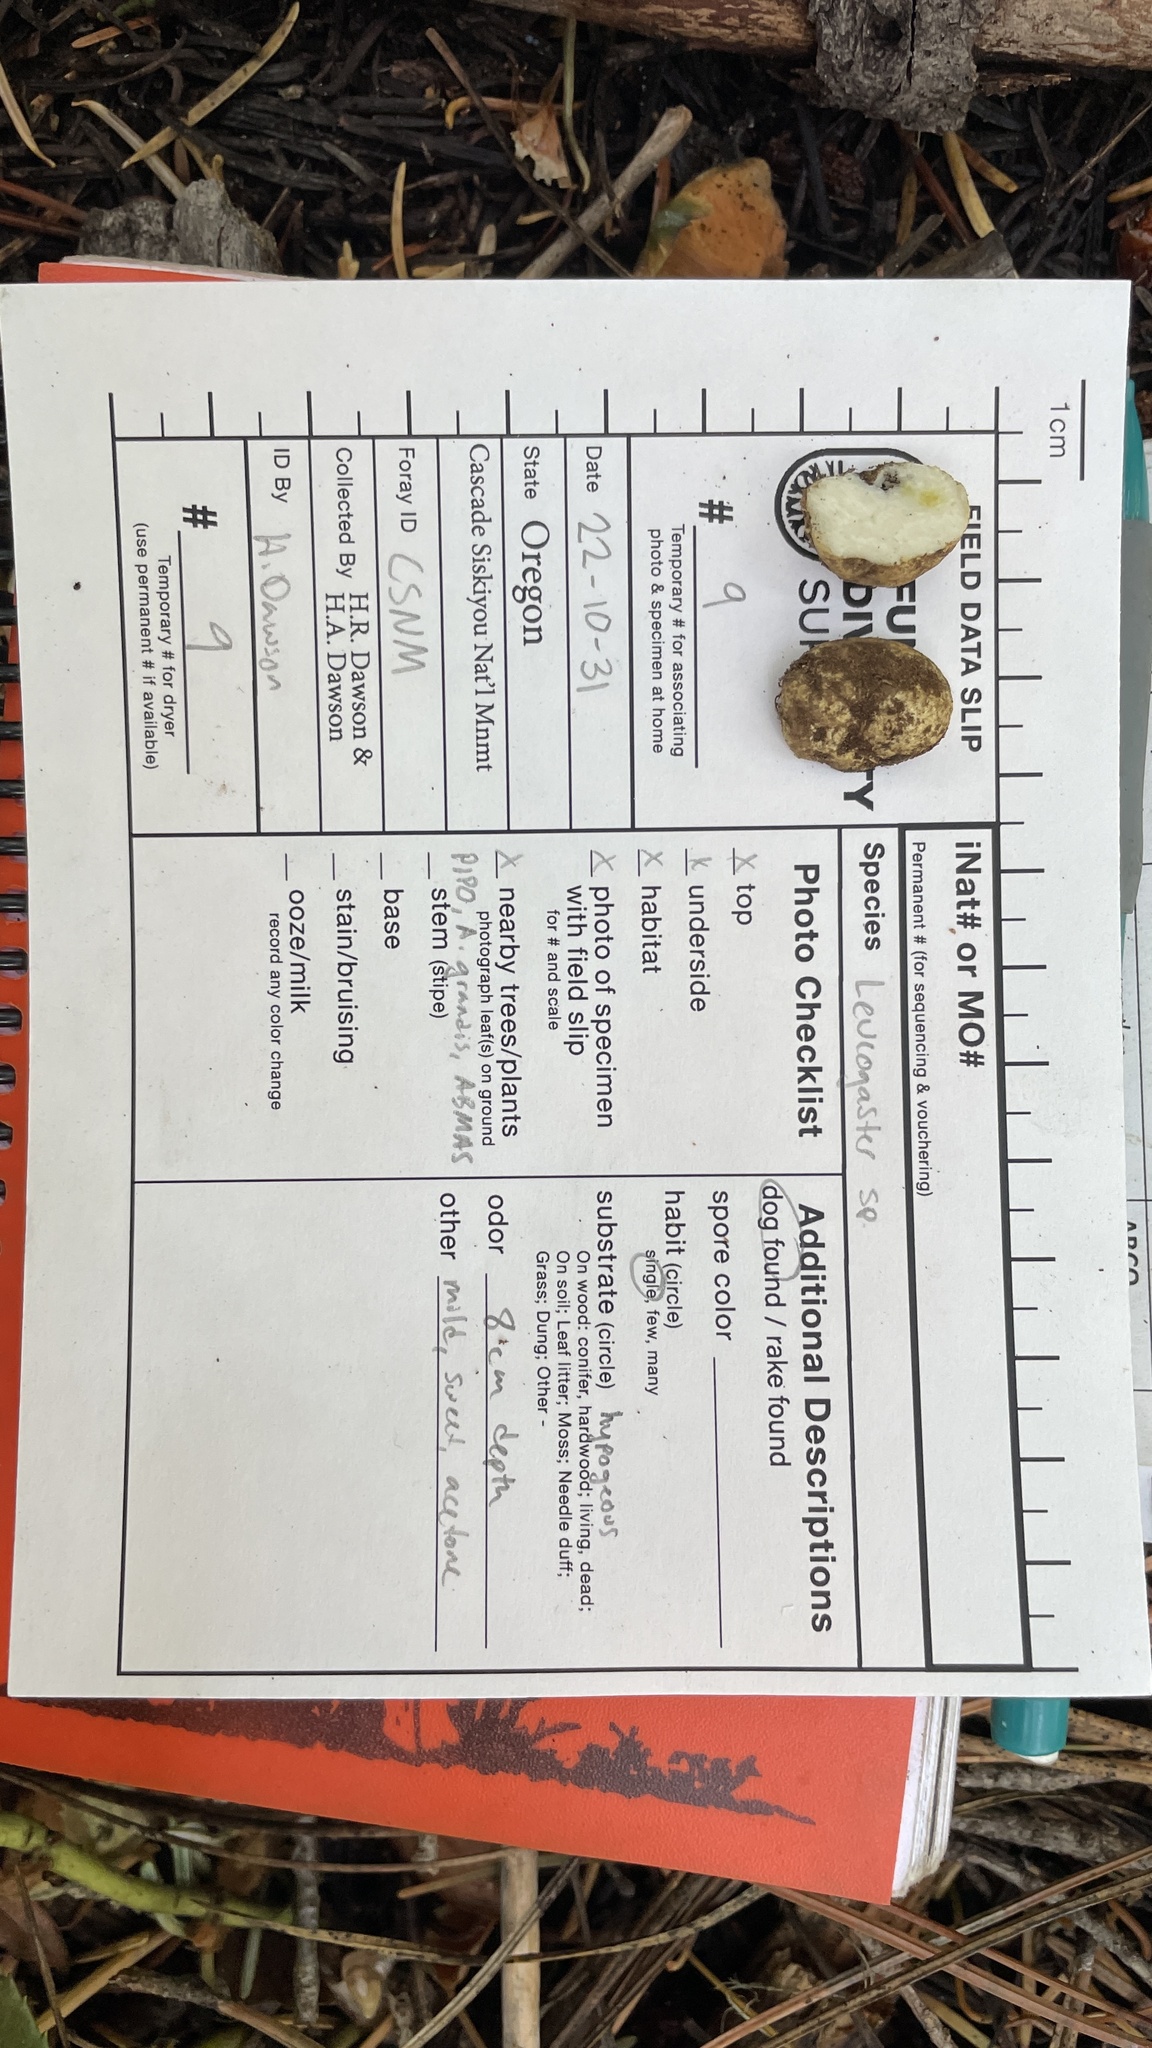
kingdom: Fungi
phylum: Basidiomycota
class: Agaricomycetes
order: Russulales
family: Albatrellaceae
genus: Leucogaster
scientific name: Leucogaster odoratus
